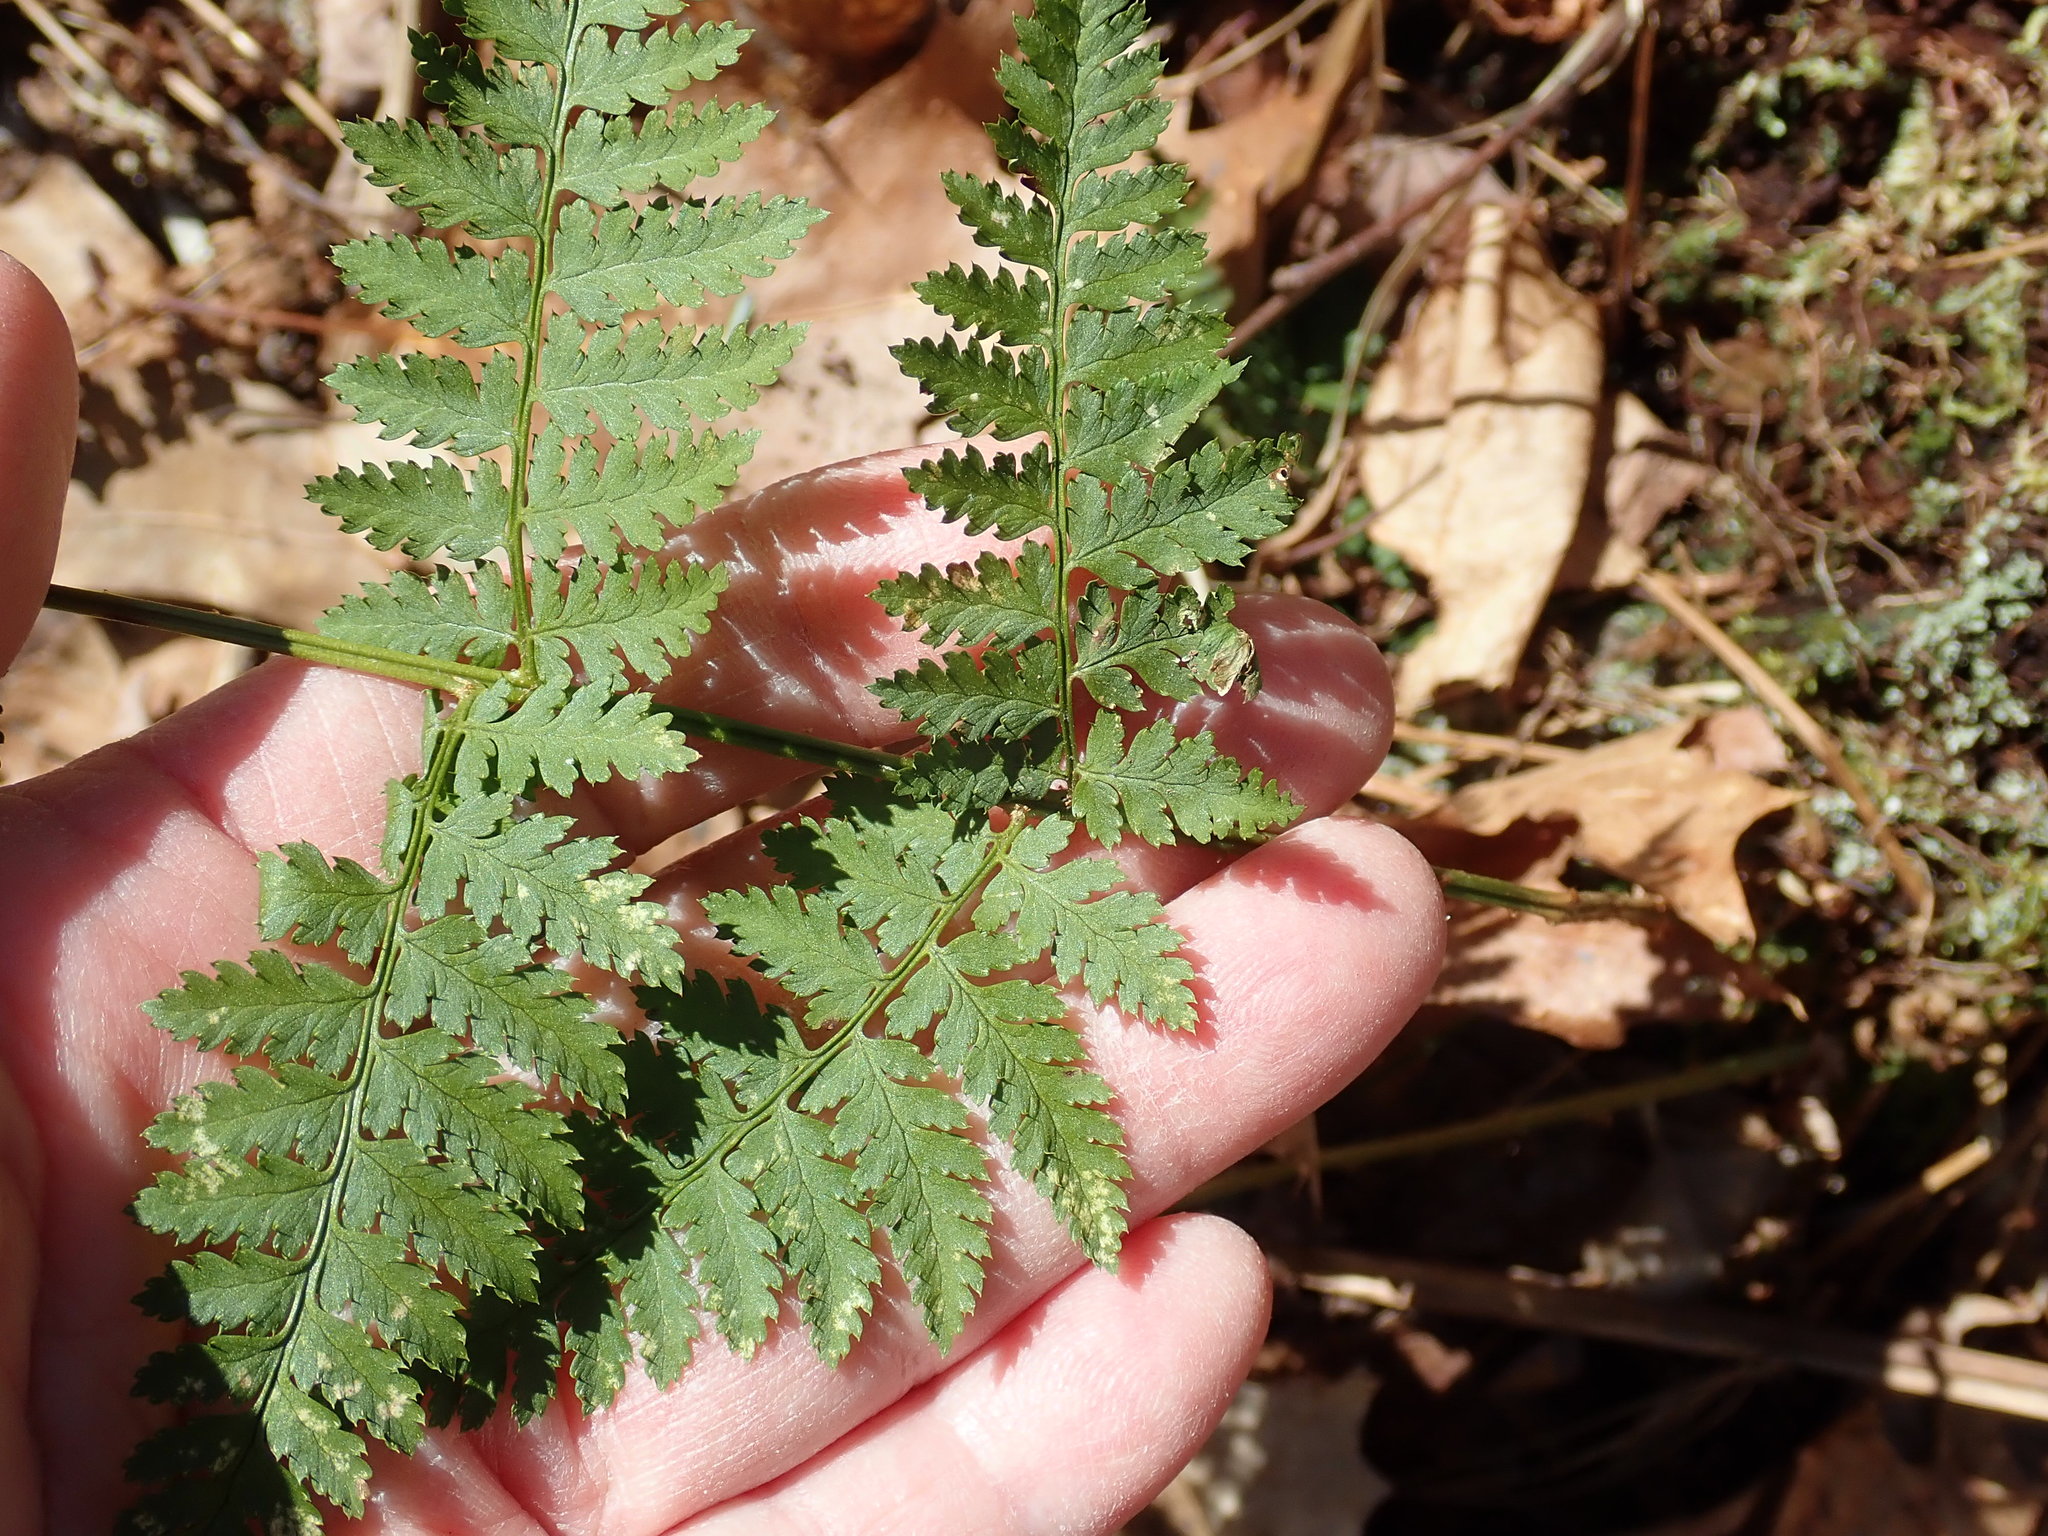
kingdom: Plantae
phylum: Tracheophyta
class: Polypodiopsida
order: Polypodiales
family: Dryopteridaceae
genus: Dryopteris
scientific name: Dryopteris intermedia
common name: Evergreen wood fern
